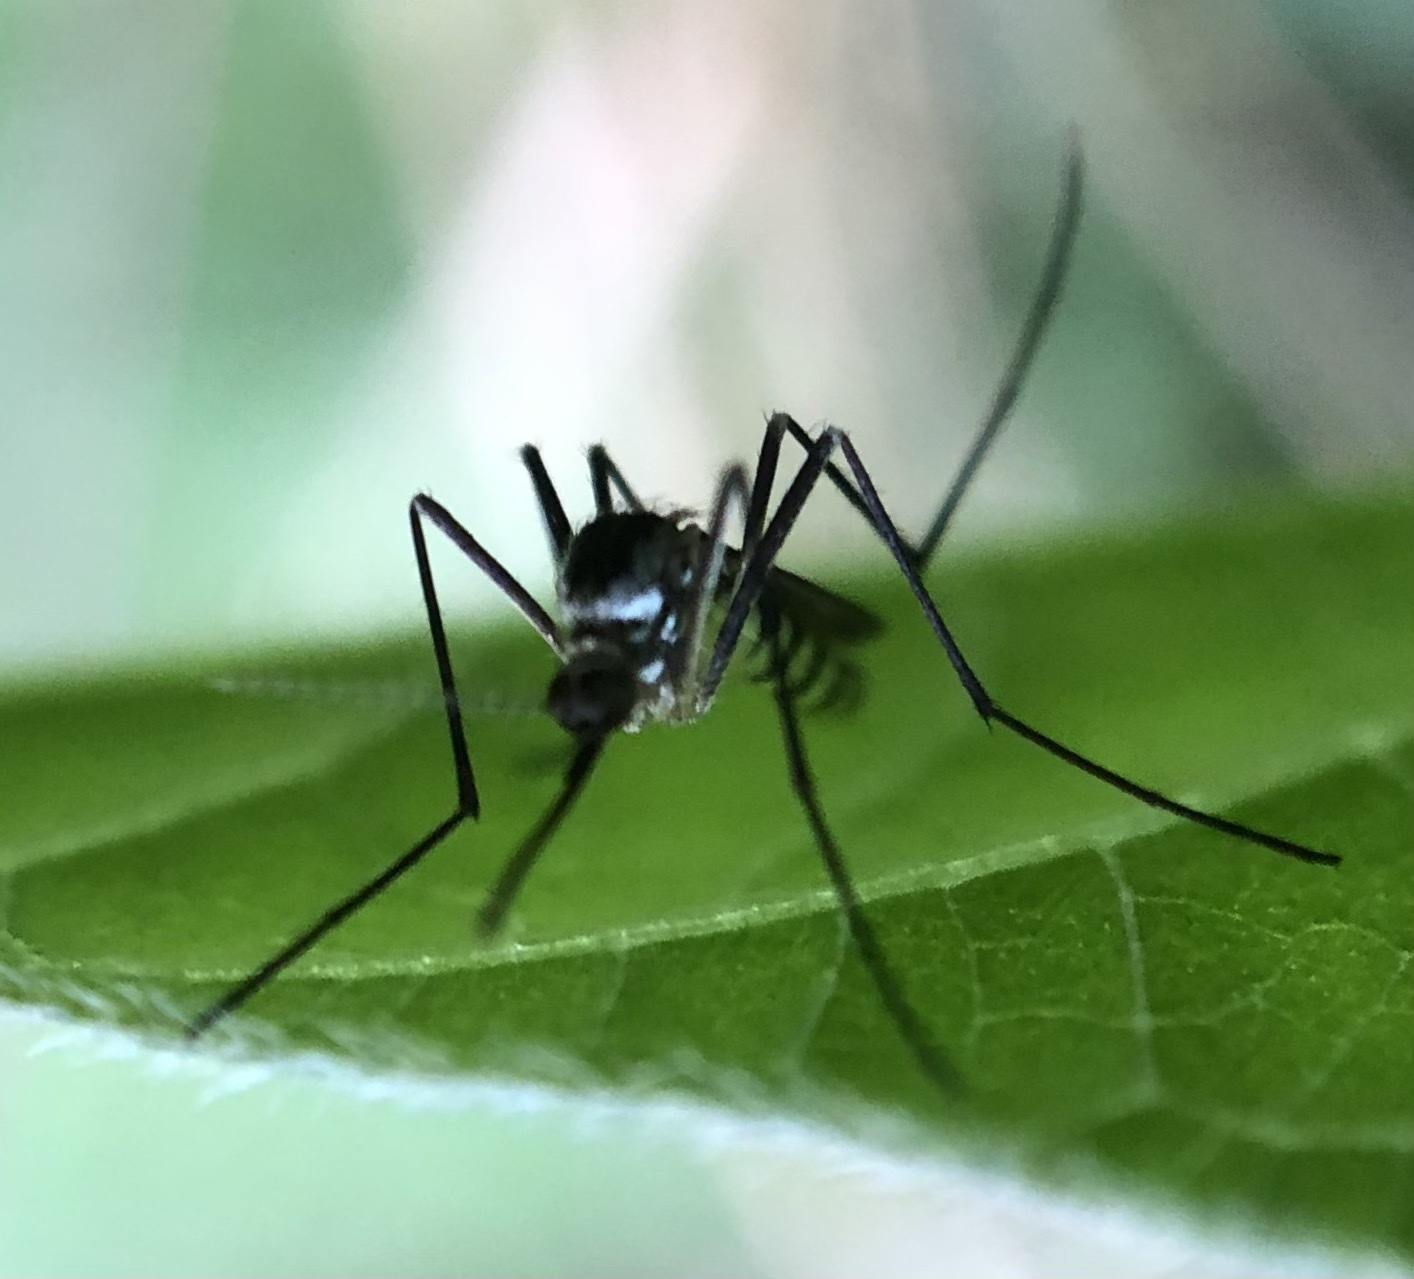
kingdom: Animalia
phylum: Arthropoda
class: Insecta
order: Diptera
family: Culicidae
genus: Aedes
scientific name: Aedes triseriatus
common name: Eastern treehole mosquito
